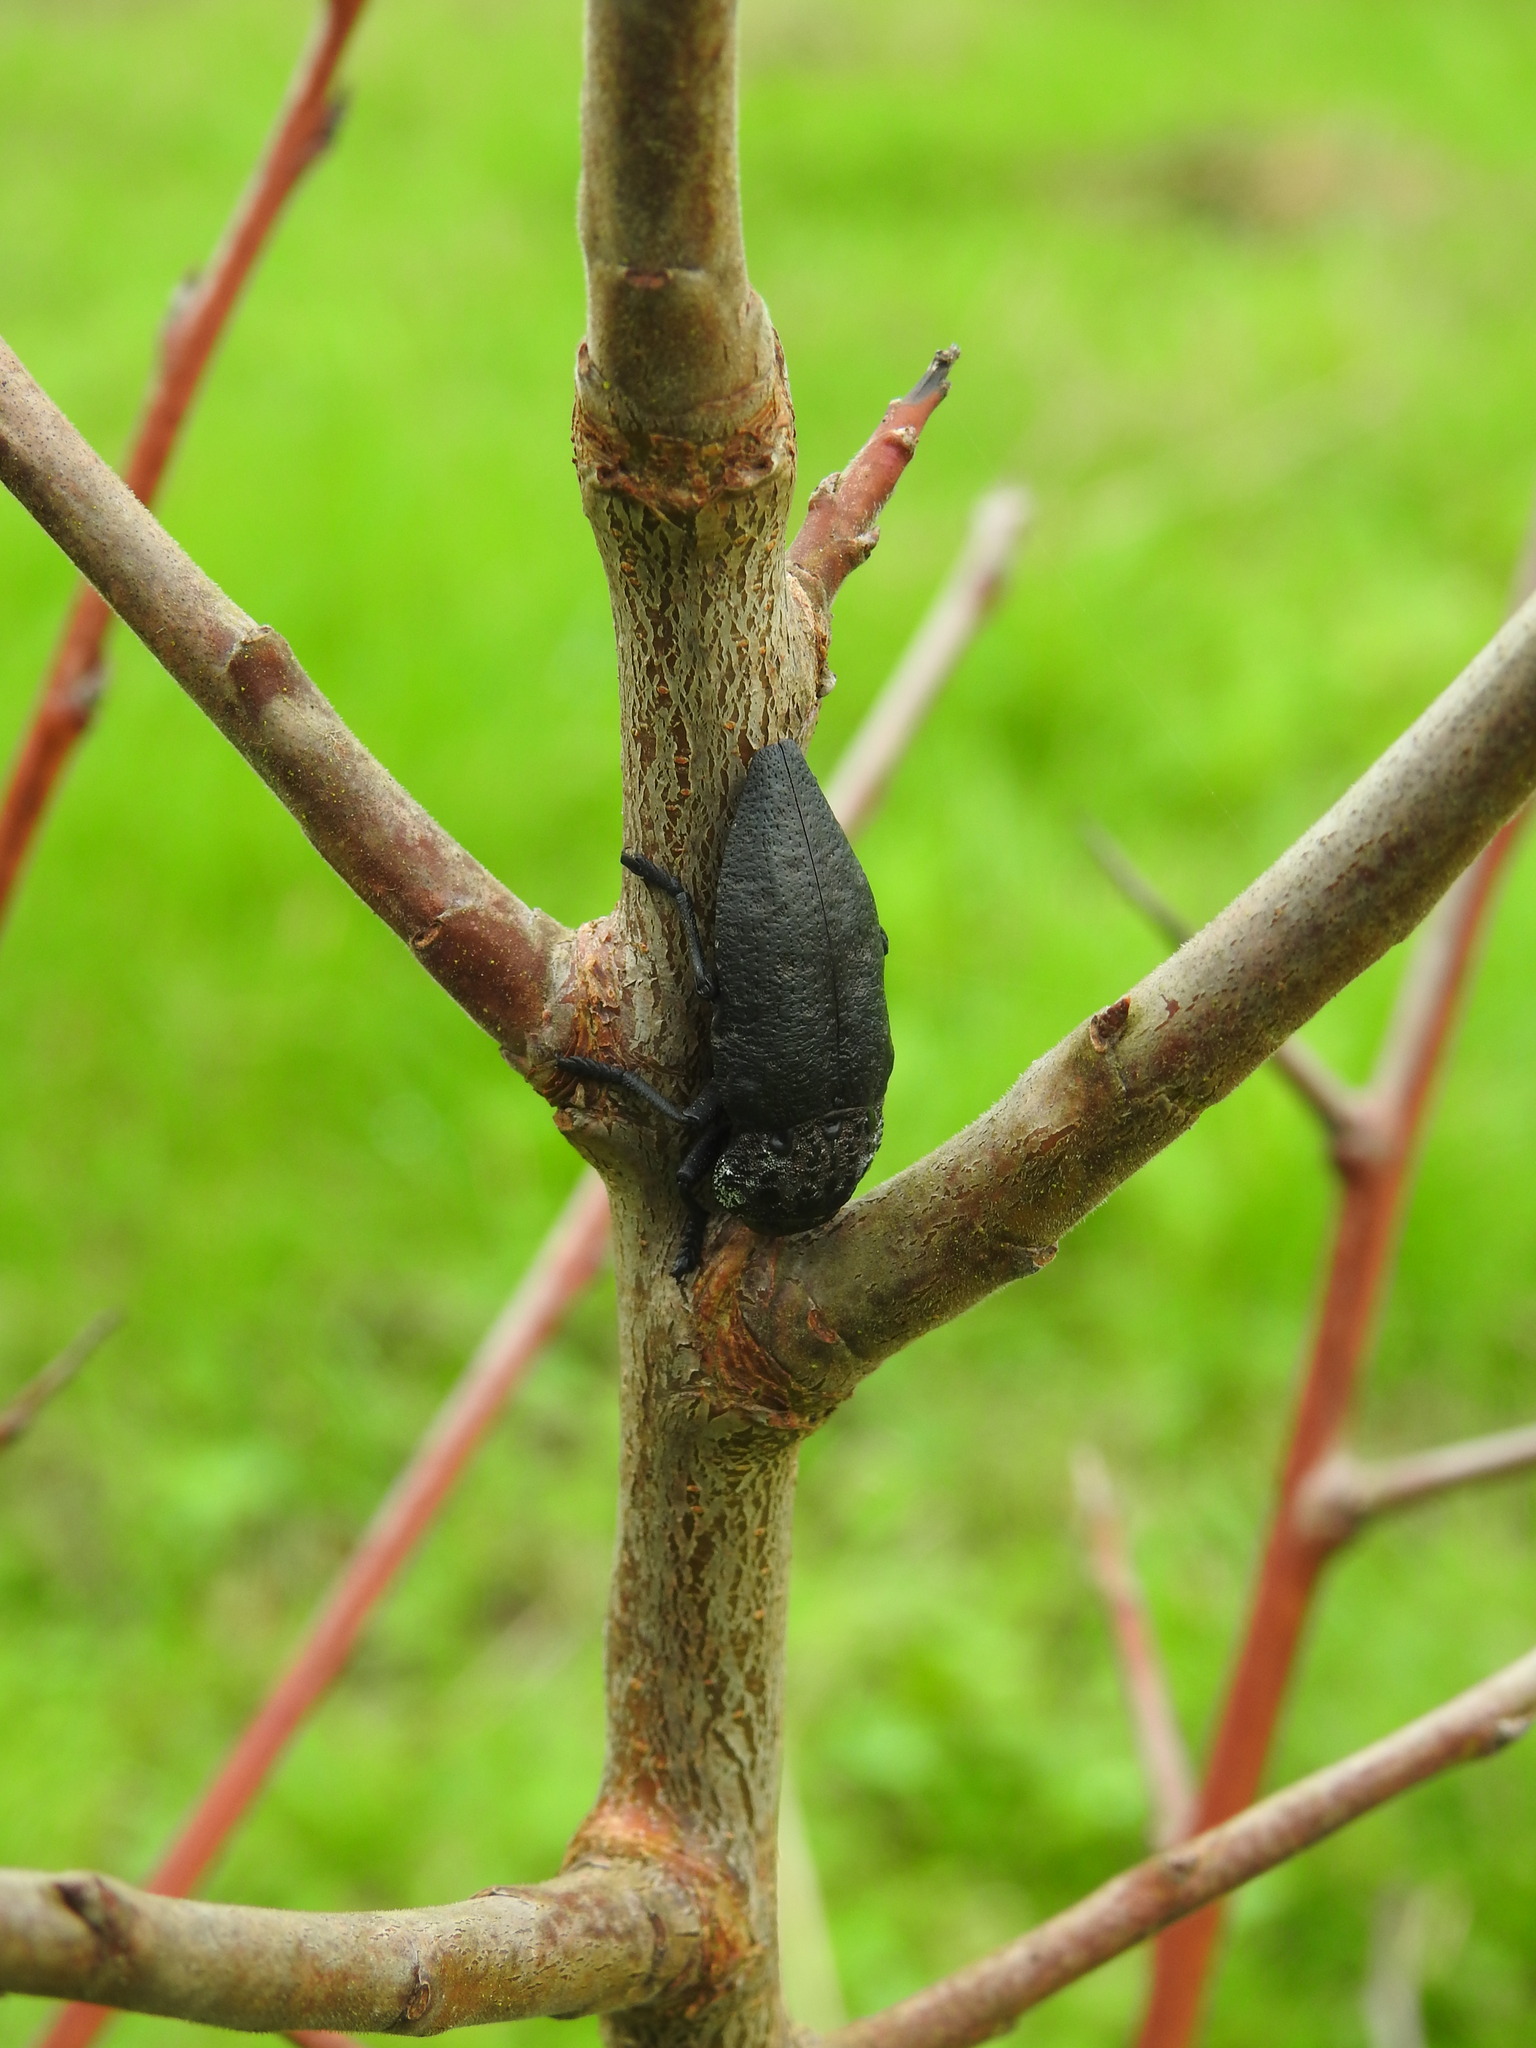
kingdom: Animalia
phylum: Arthropoda
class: Insecta
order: Coleoptera
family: Buprestidae
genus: Capnodis
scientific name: Capnodis tenebrionis
